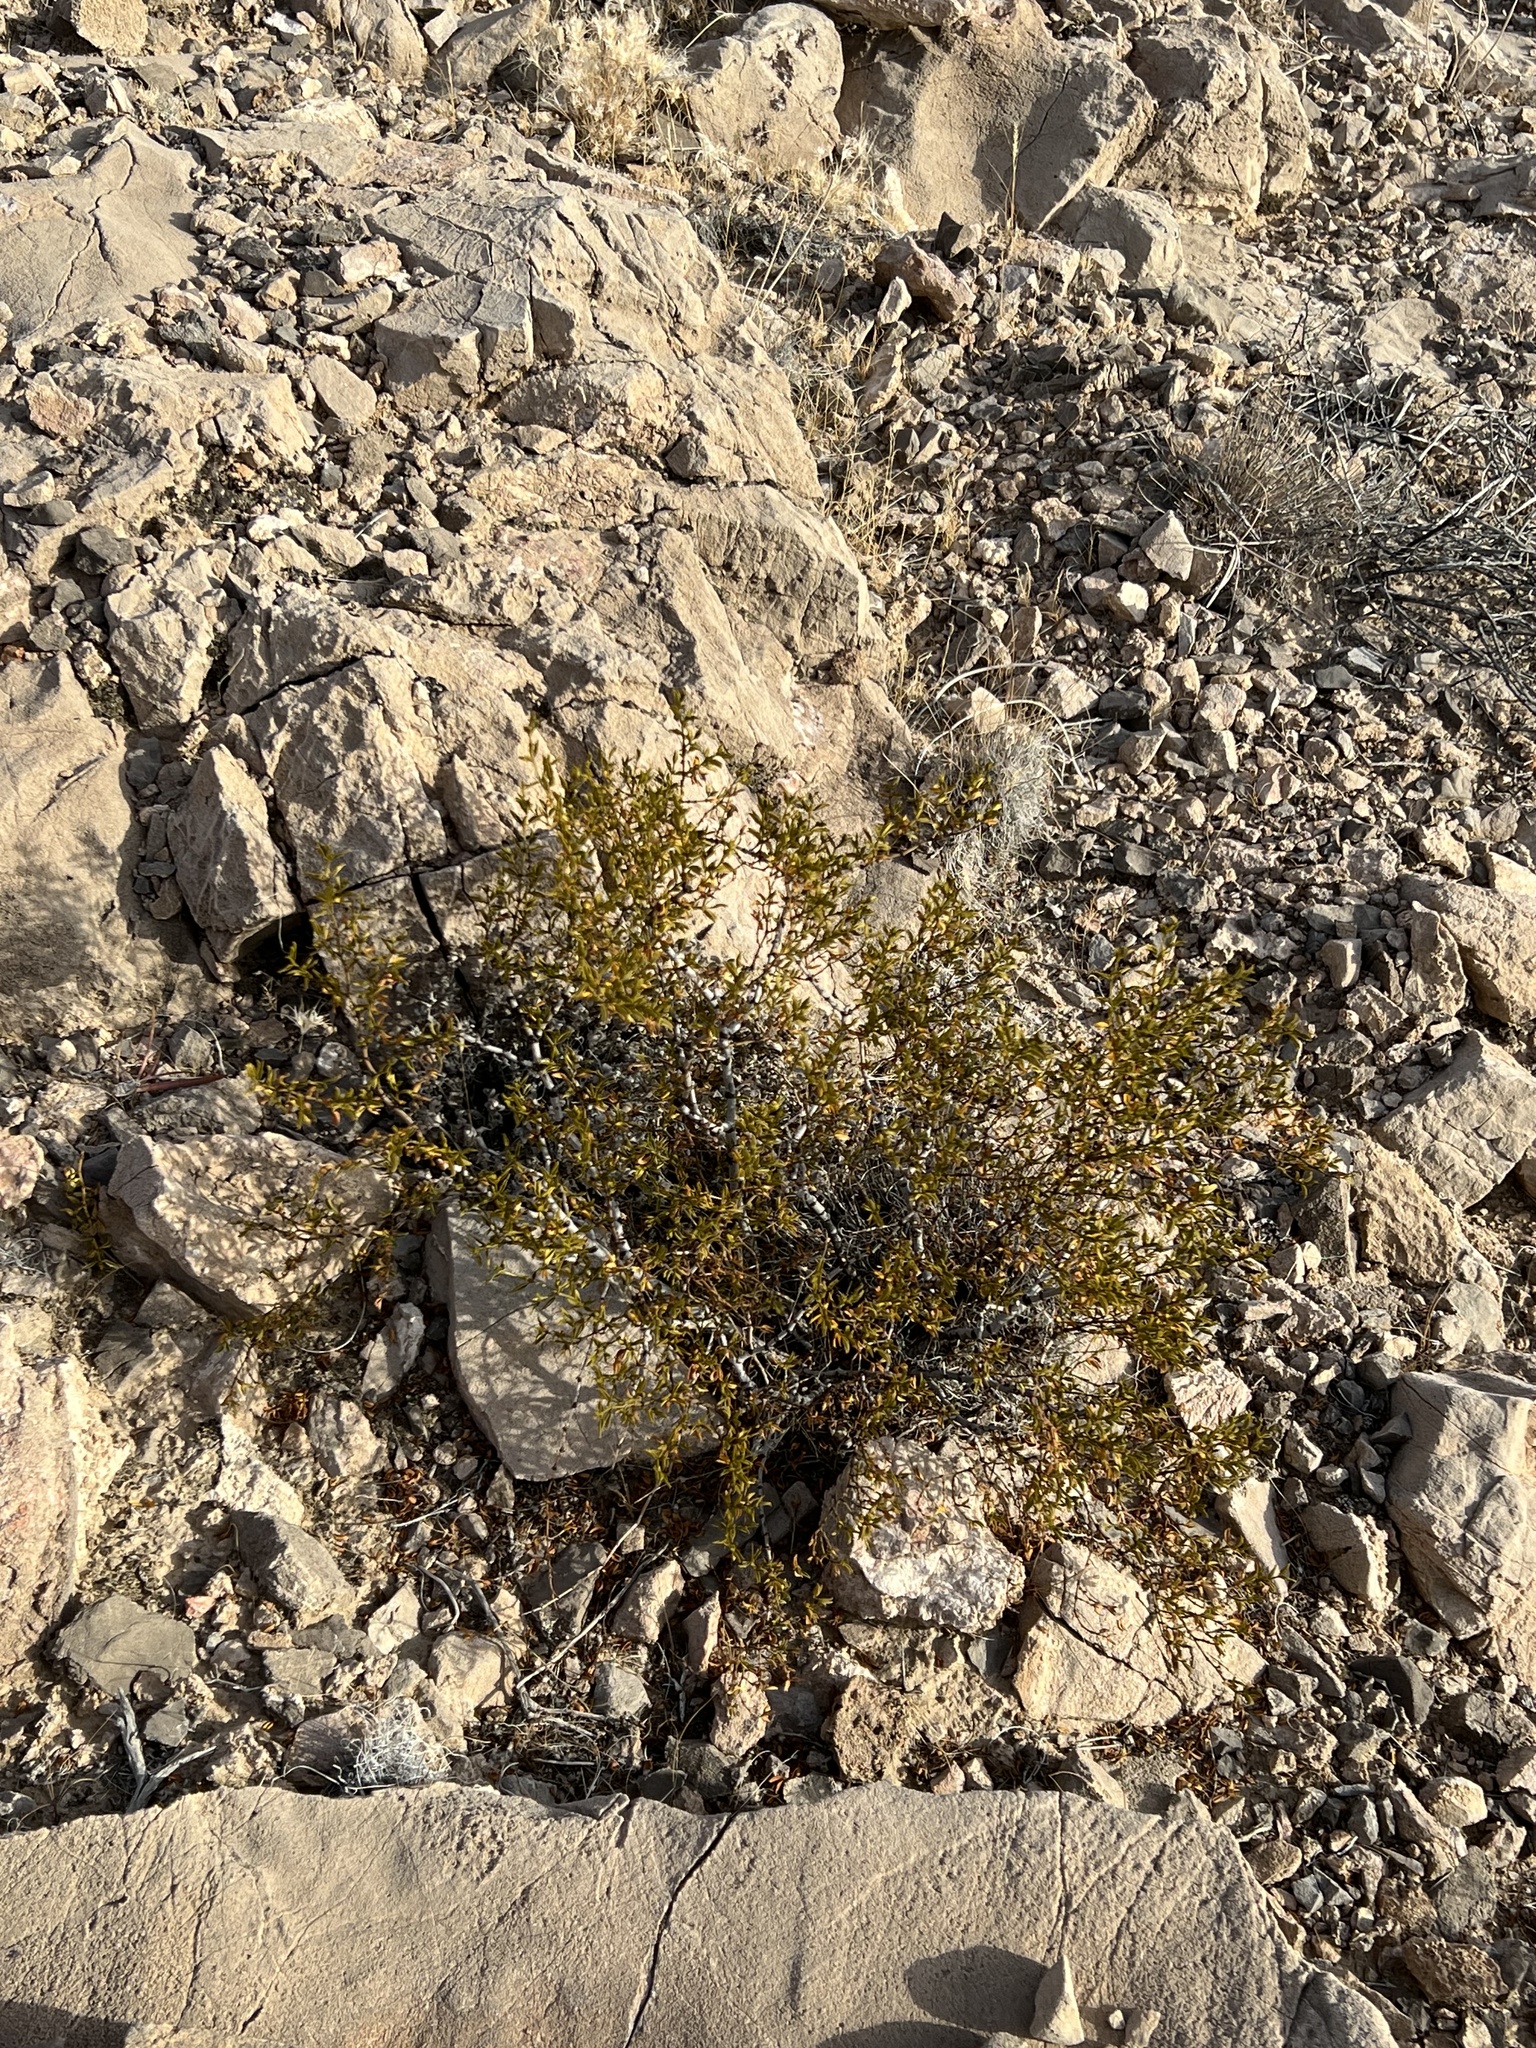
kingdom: Plantae
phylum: Tracheophyta
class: Magnoliopsida
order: Zygophyllales
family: Zygophyllaceae
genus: Larrea
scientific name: Larrea tridentata
